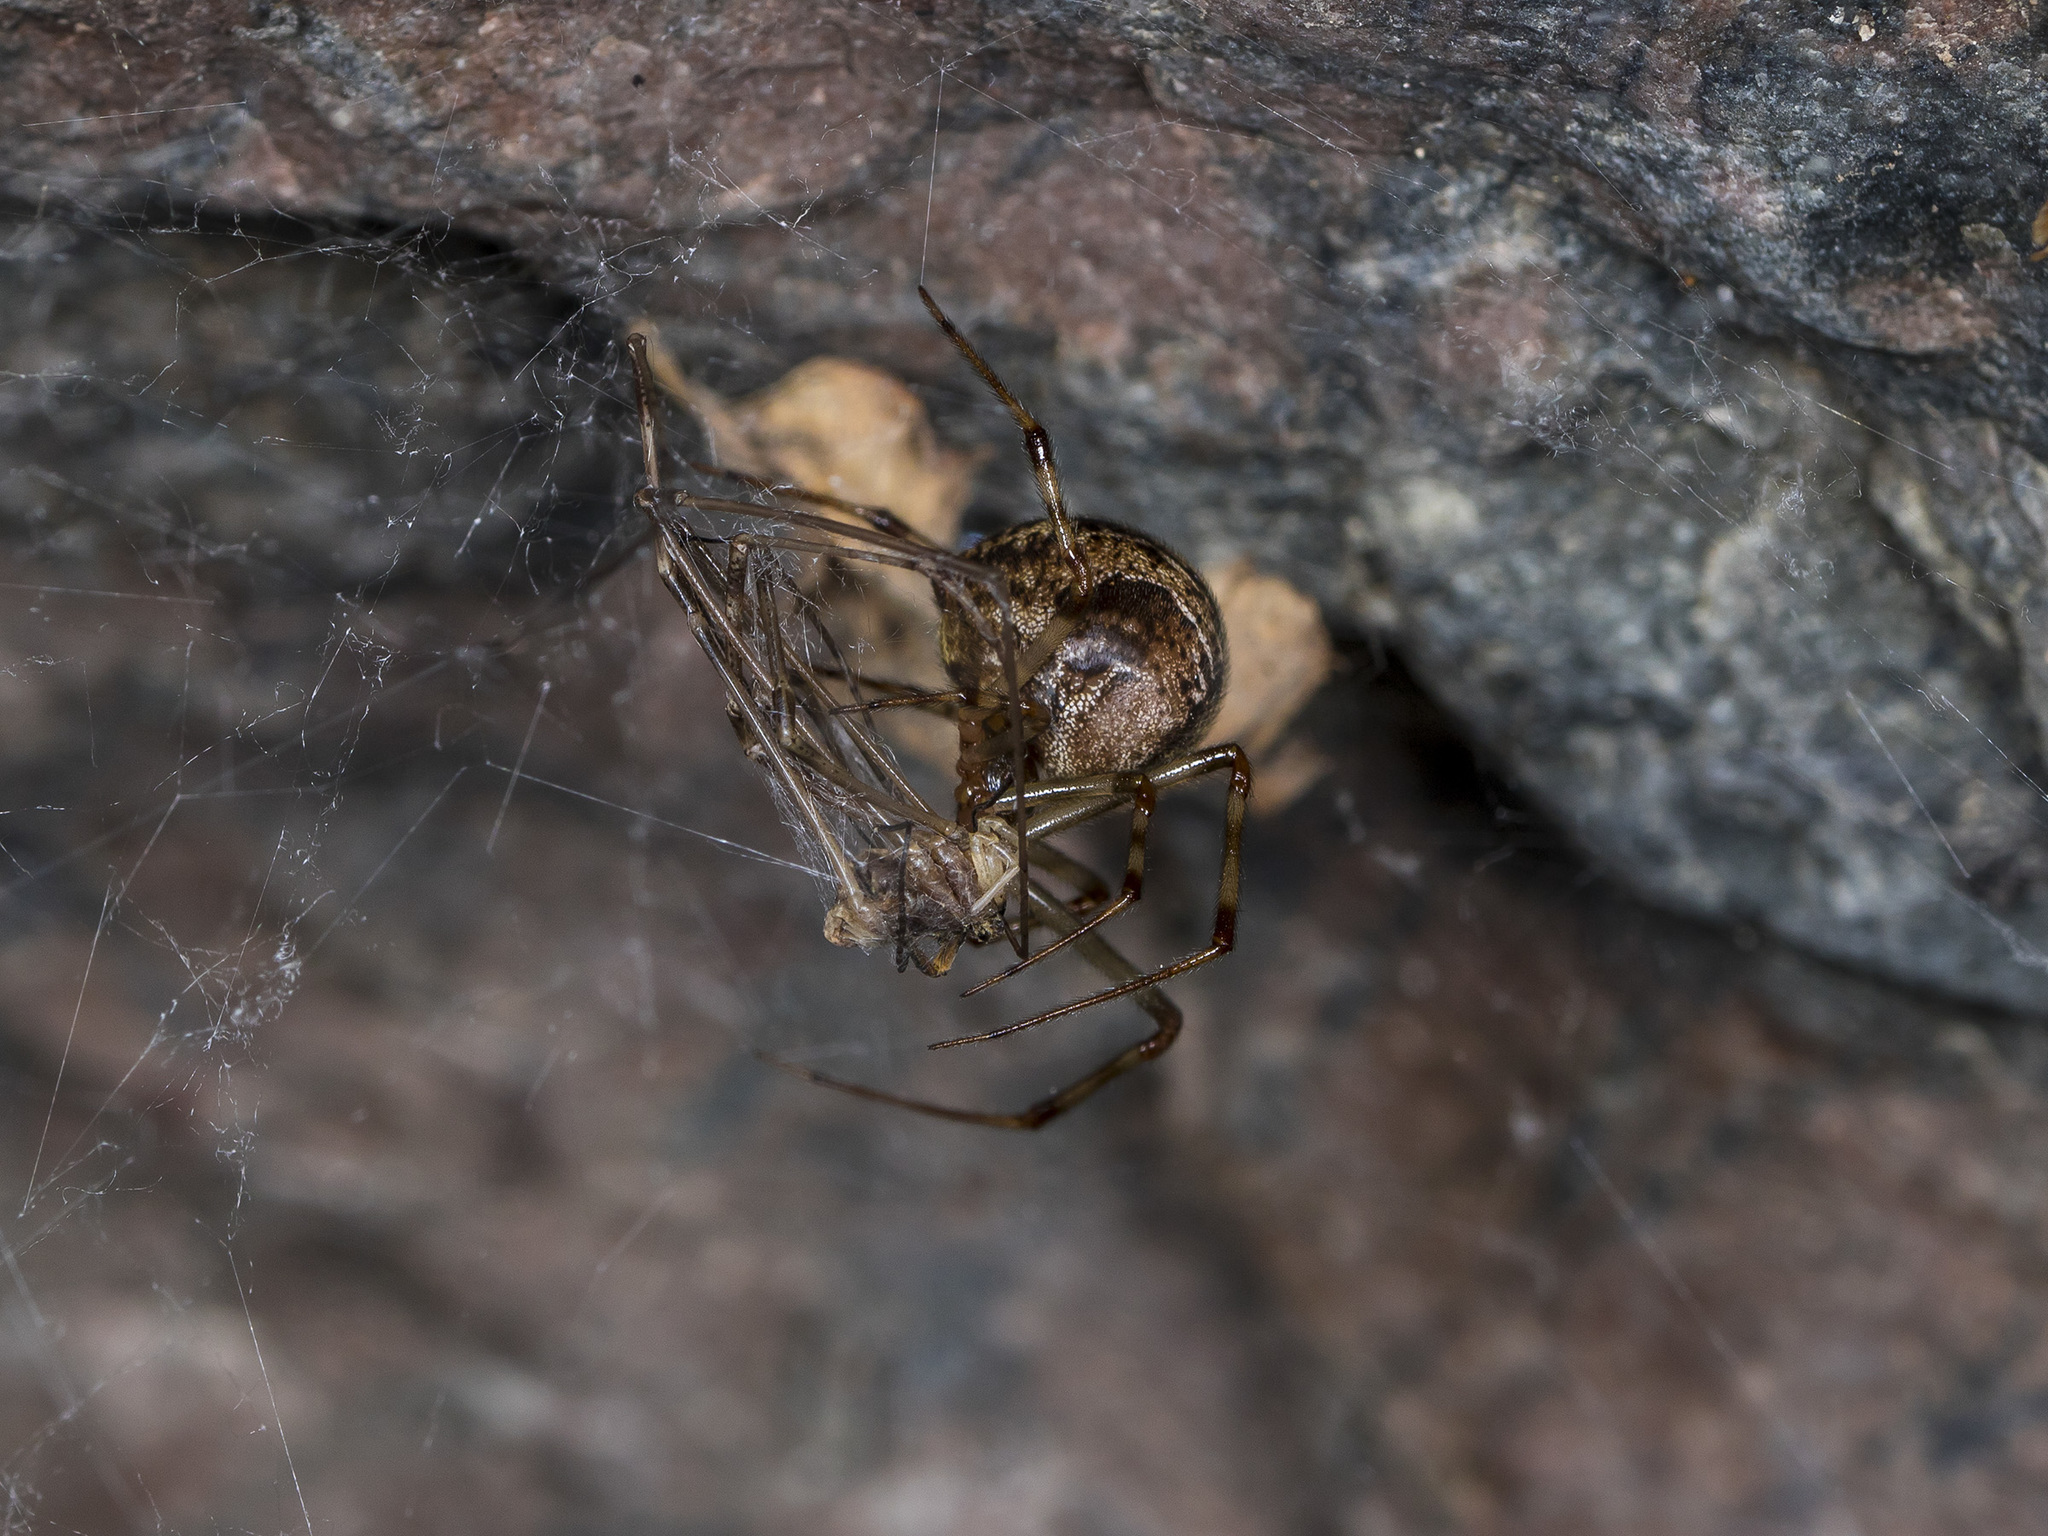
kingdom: Animalia
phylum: Arthropoda
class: Arachnida
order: Araneae
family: Theridiidae
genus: Parasteatoda
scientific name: Parasteatoda tepidariorum
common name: Common house spider
